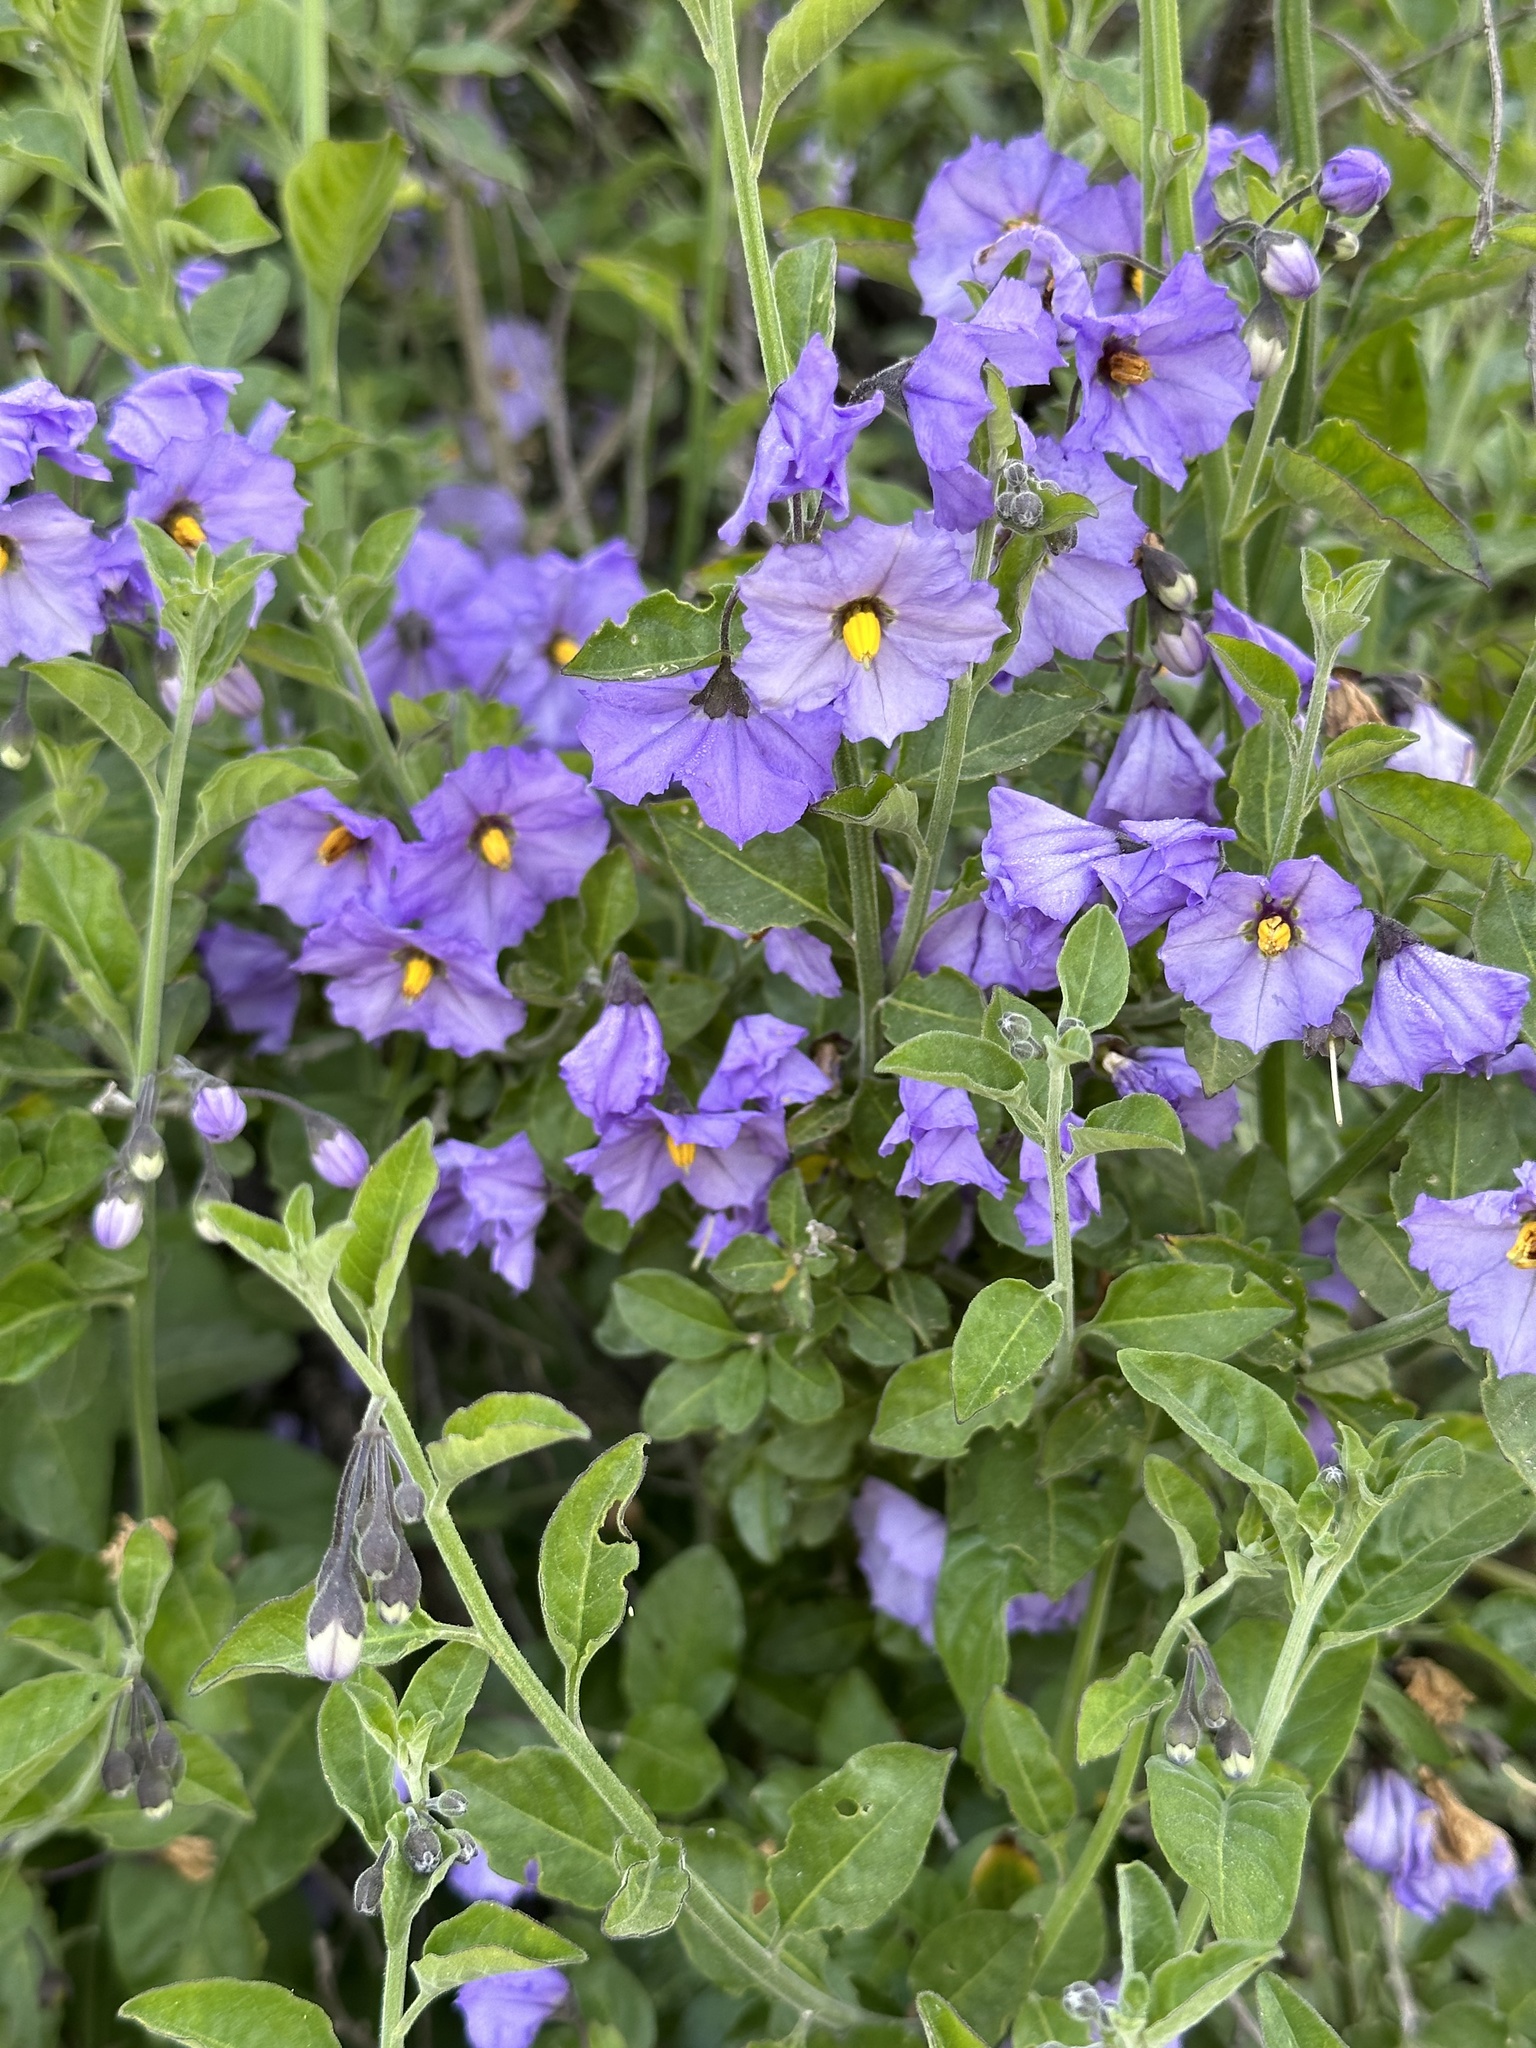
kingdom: Plantae
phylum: Tracheophyta
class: Magnoliopsida
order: Solanales
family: Solanaceae
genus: Solanum
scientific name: Solanum umbelliferum
